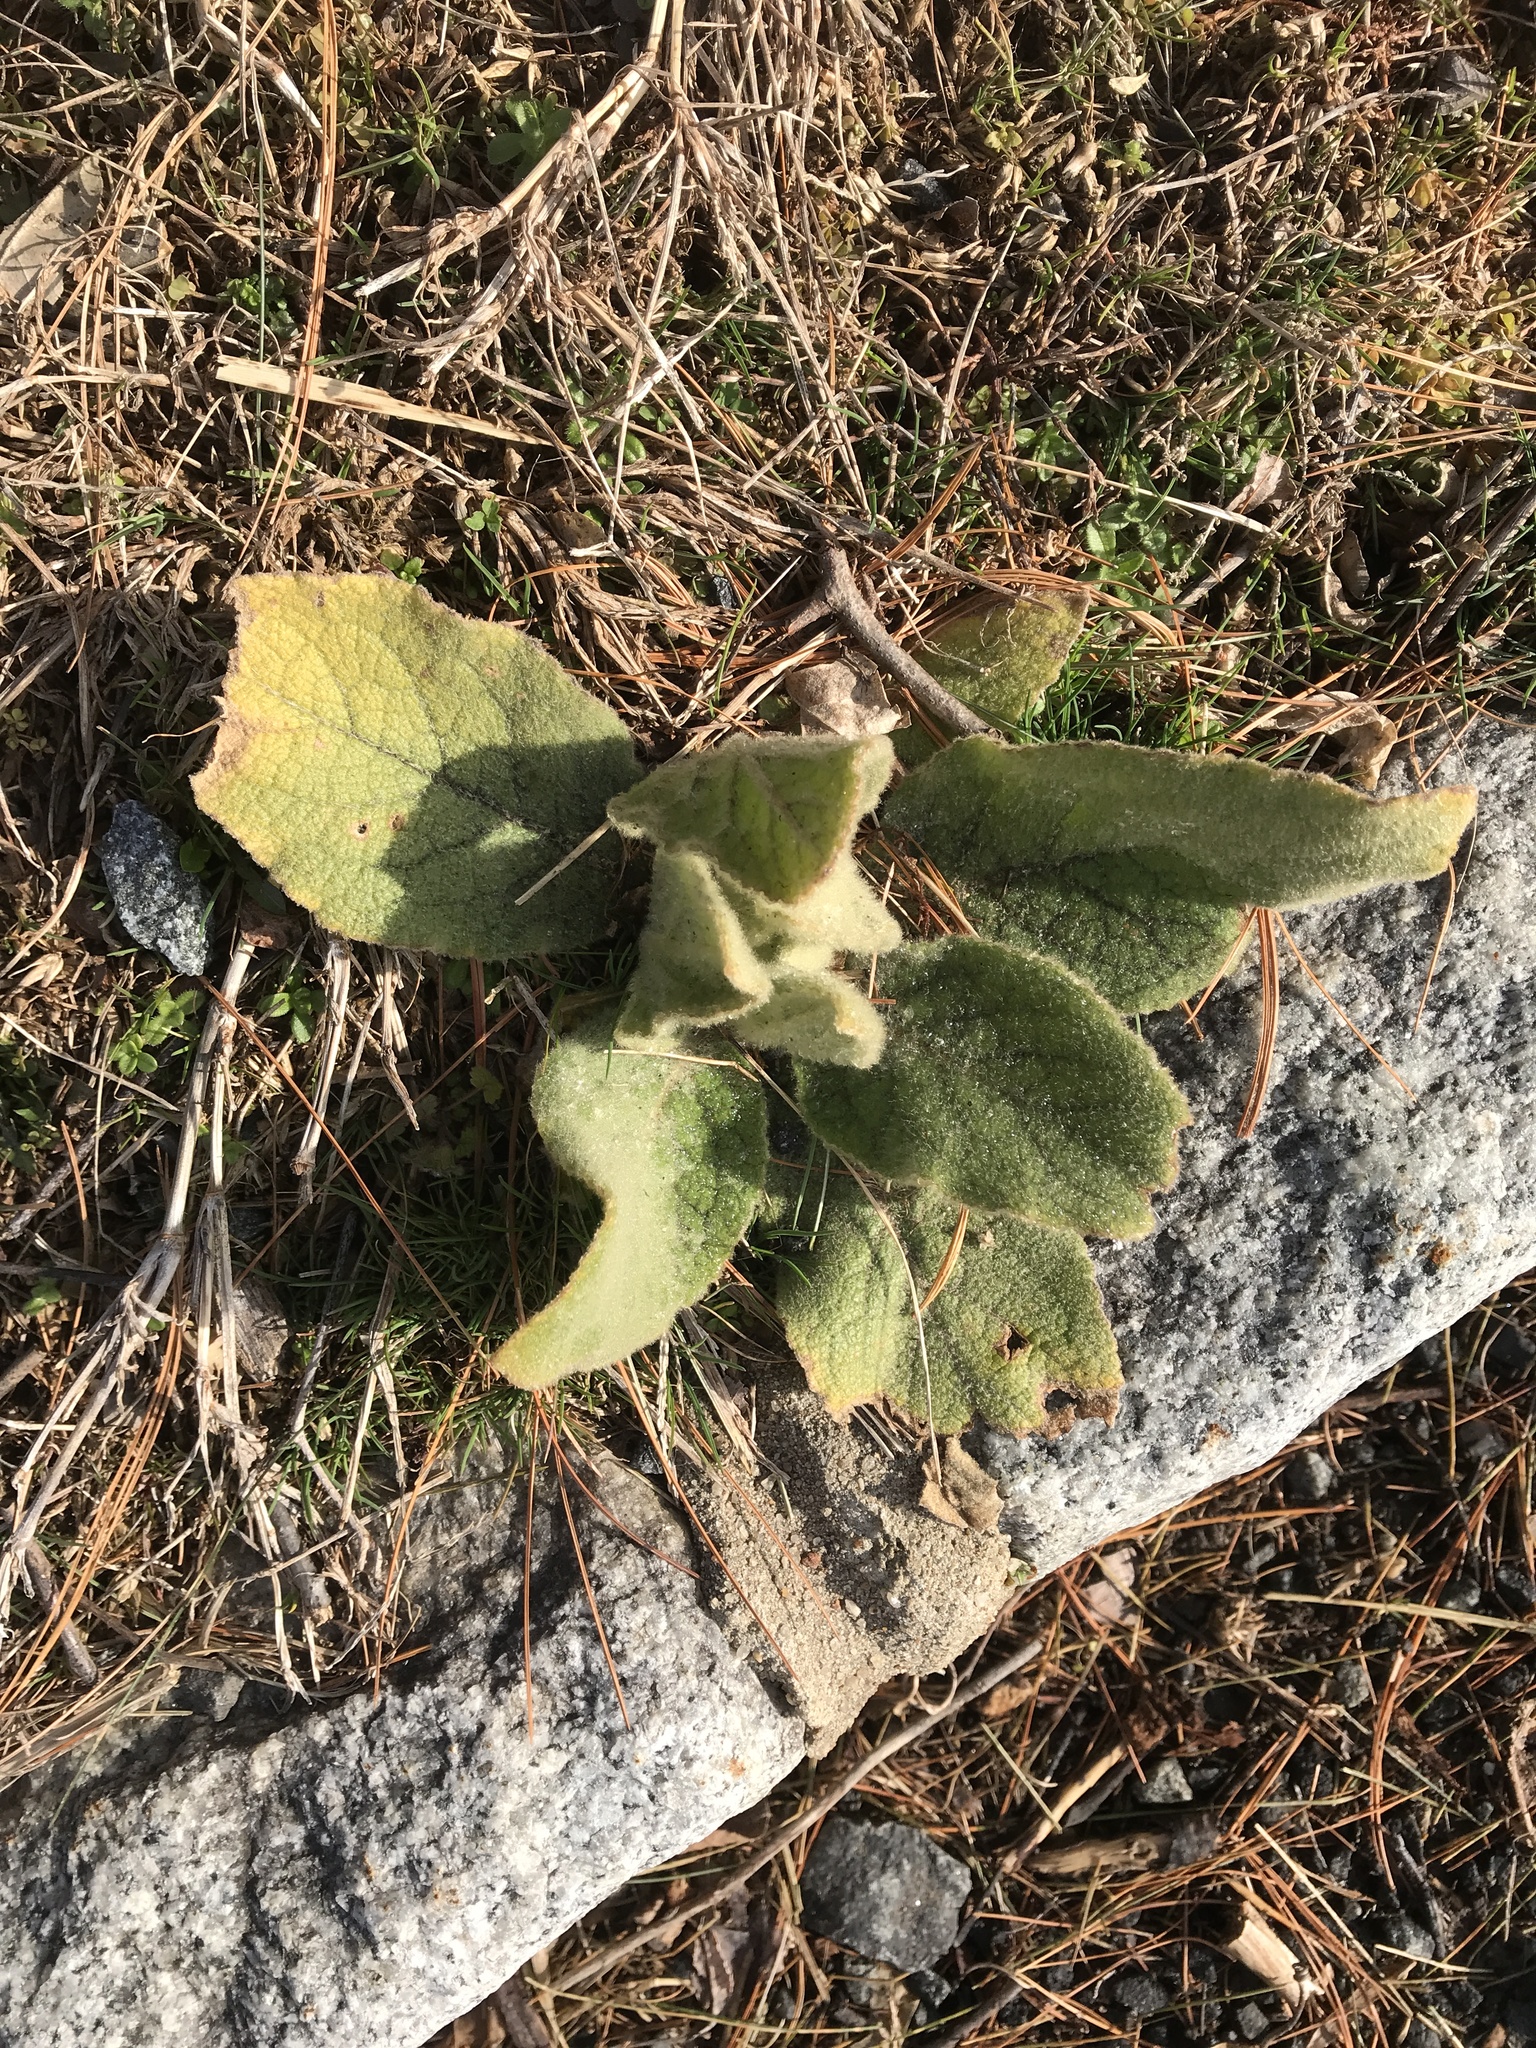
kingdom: Plantae
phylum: Tracheophyta
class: Magnoliopsida
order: Lamiales
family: Scrophulariaceae
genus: Verbascum
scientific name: Verbascum thapsus
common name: Common mullein
